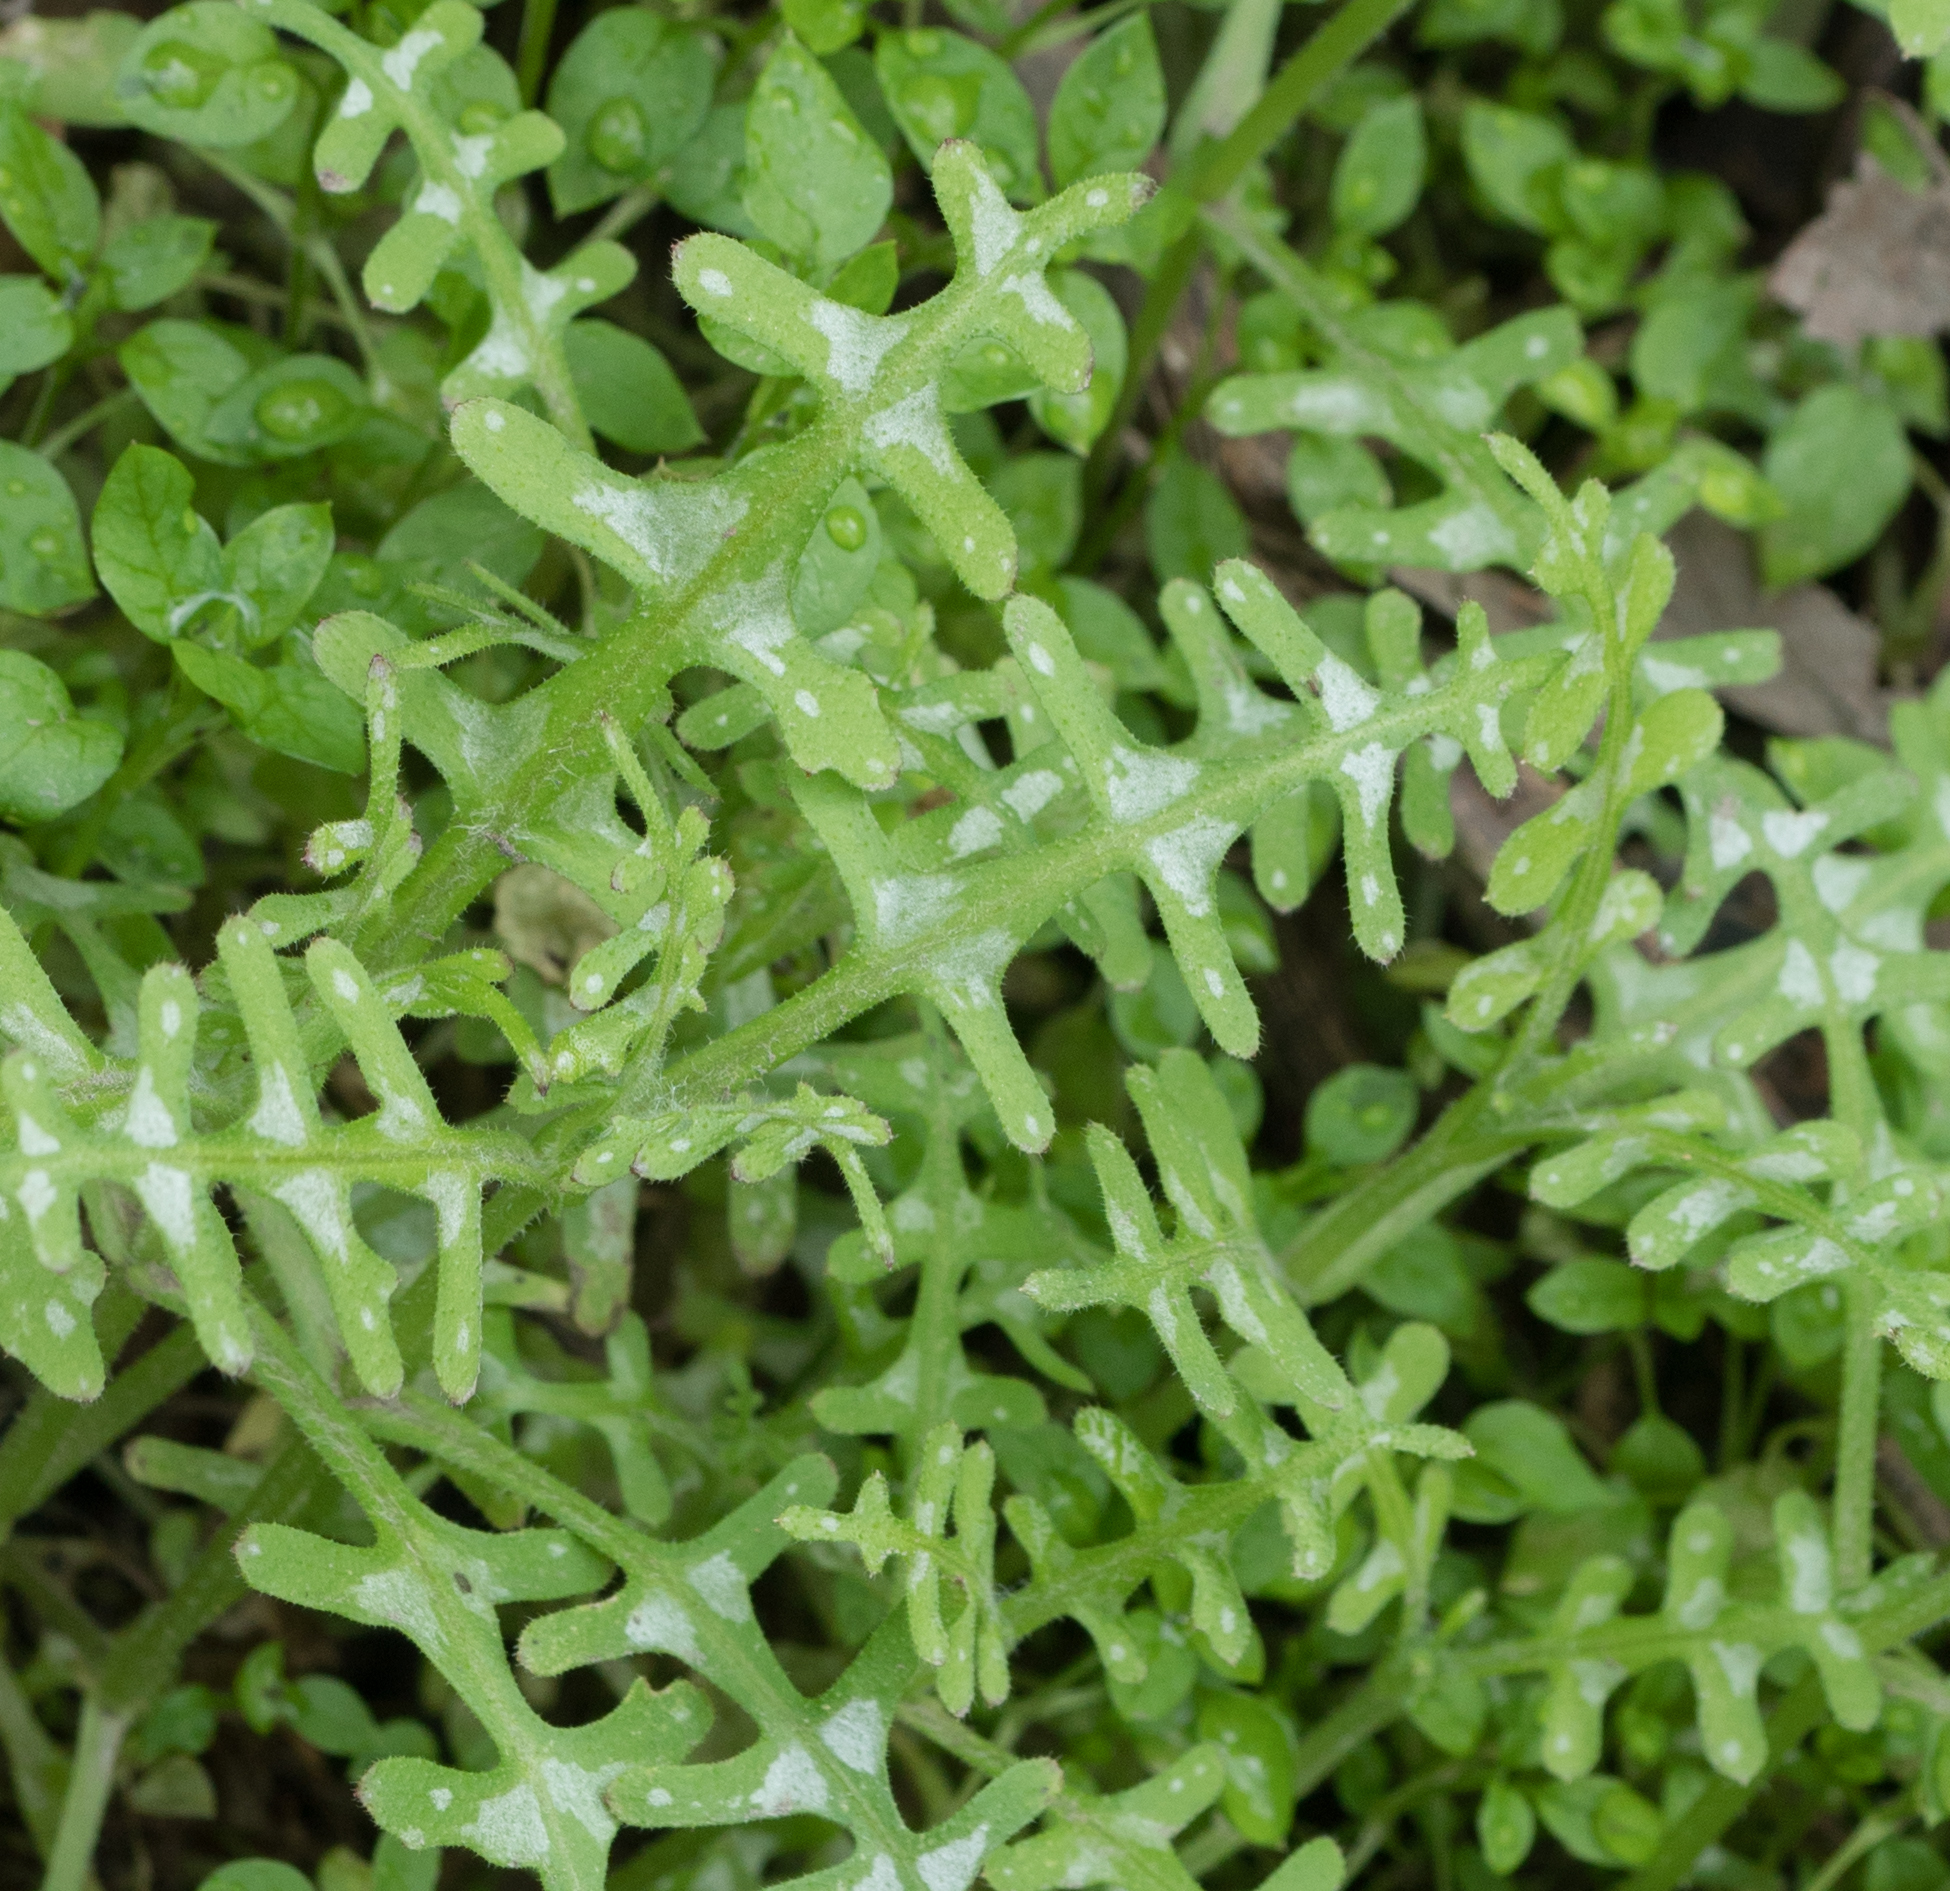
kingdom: Plantae
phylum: Tracheophyta
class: Magnoliopsida
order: Boraginales
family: Hydrophyllaceae
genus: Pholistoma
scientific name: Pholistoma auritum
